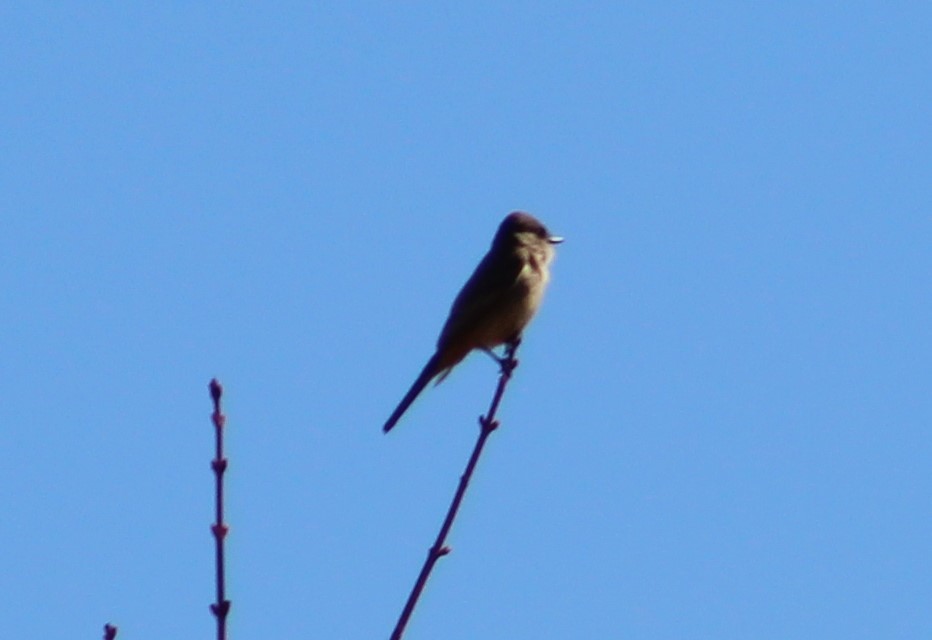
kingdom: Animalia
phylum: Chordata
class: Aves
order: Passeriformes
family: Tyrannidae
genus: Sayornis
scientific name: Sayornis saya
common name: Say's phoebe
